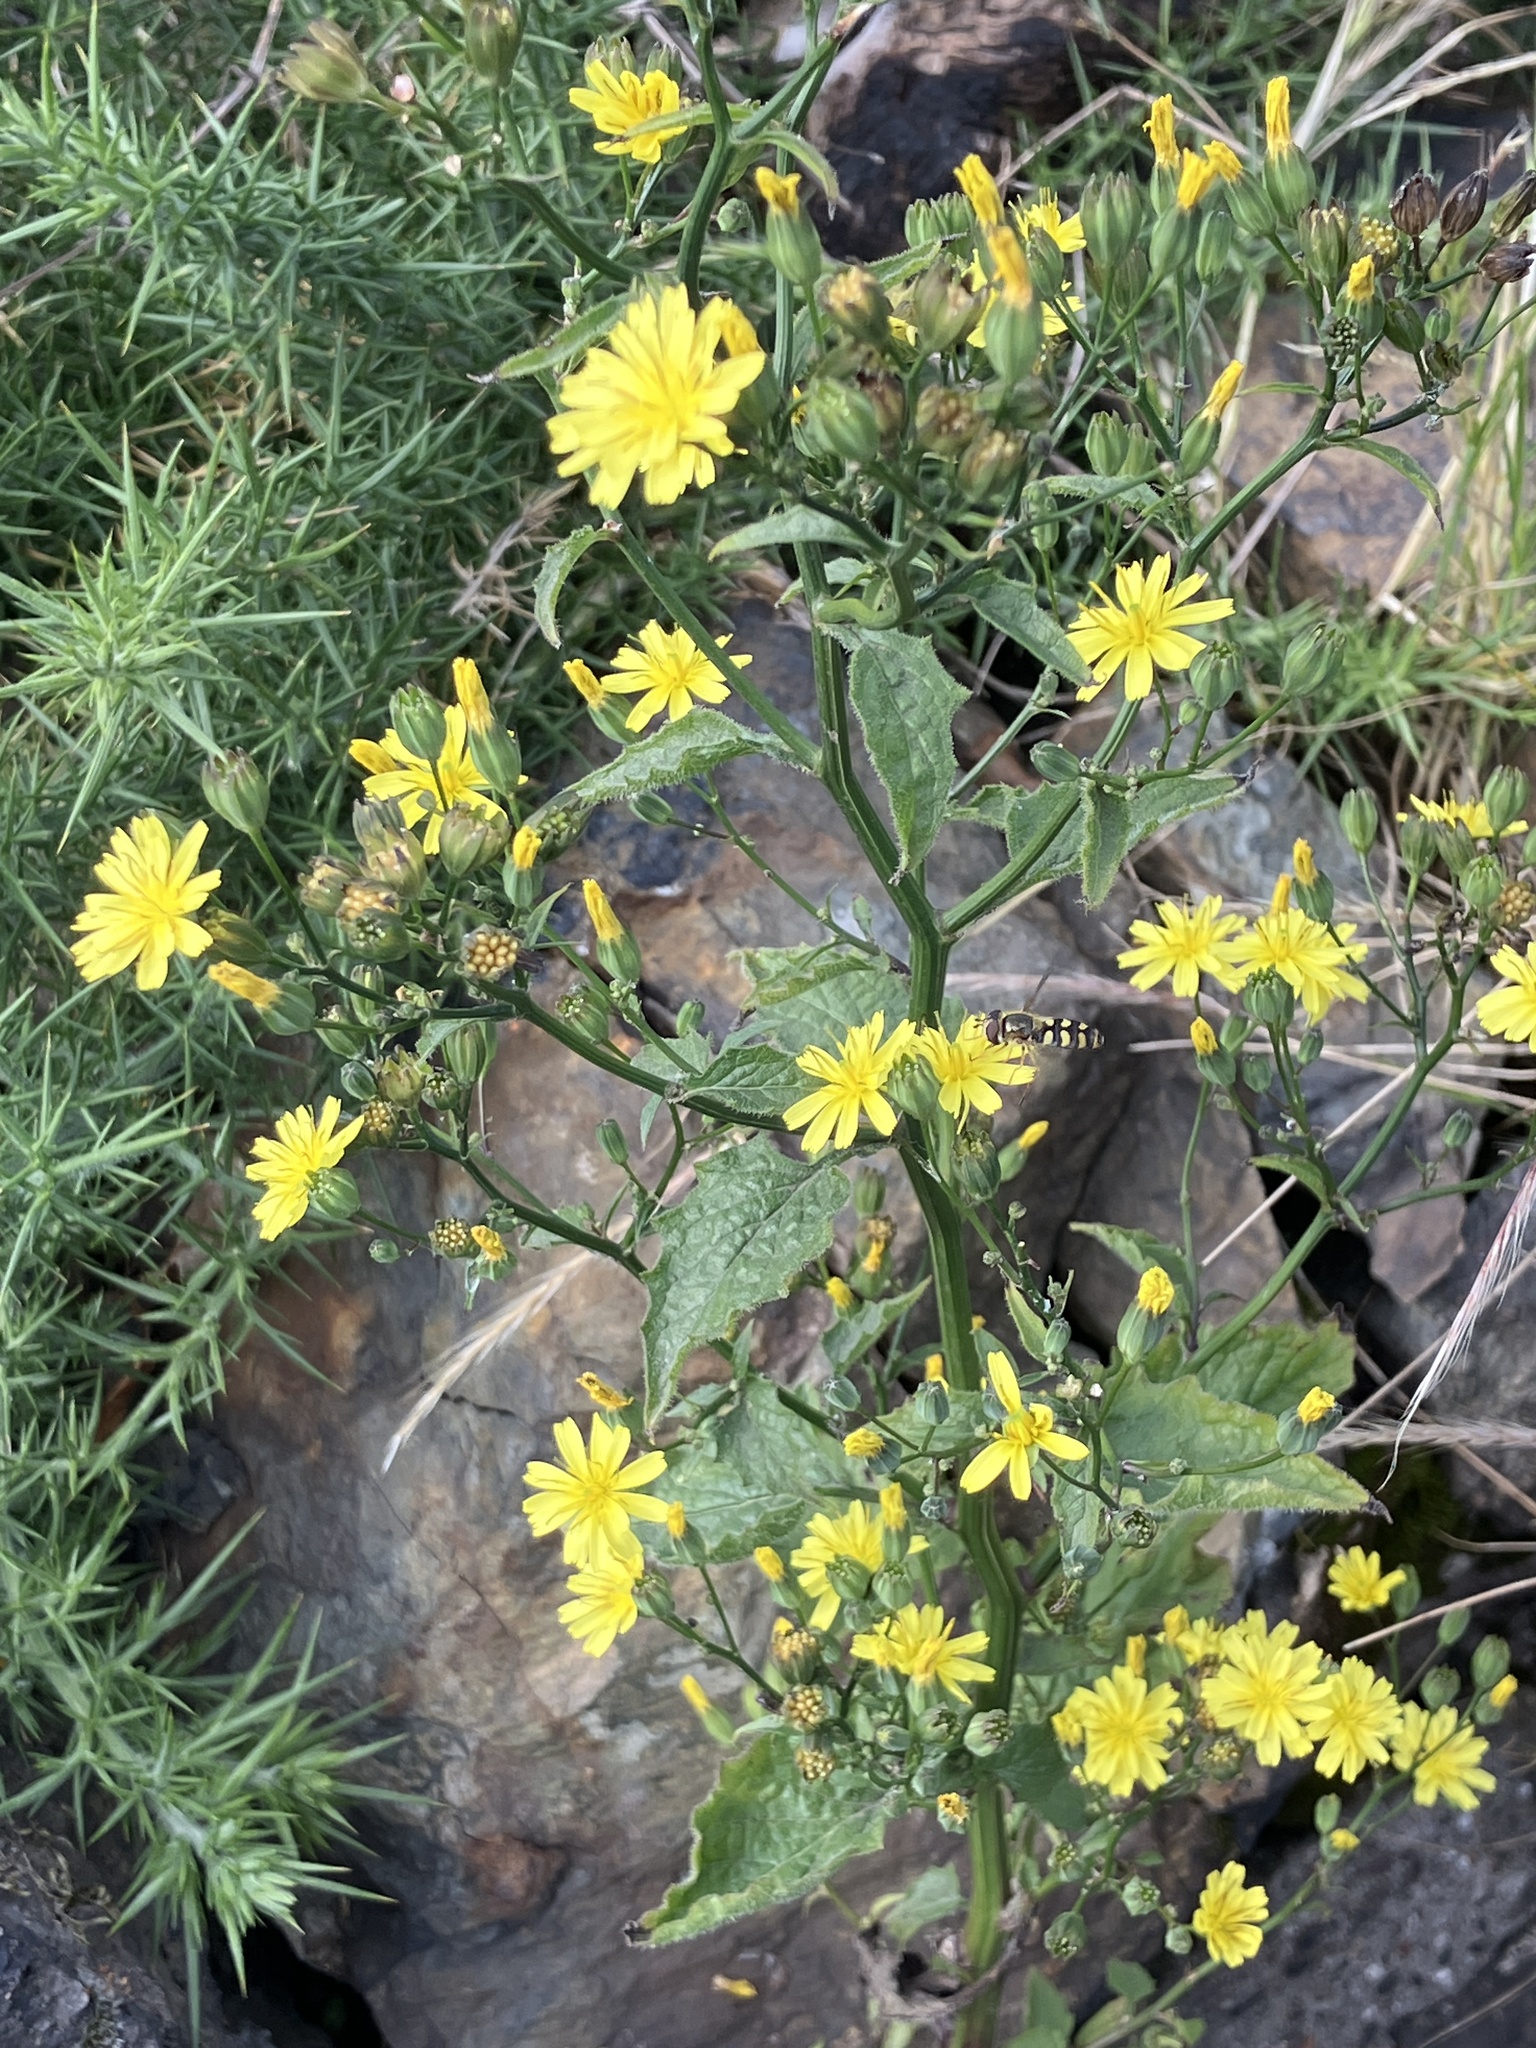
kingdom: Plantae
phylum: Tracheophyta
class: Magnoliopsida
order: Asterales
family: Asteraceae
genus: Lapsana
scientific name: Lapsana communis
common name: Nipplewort
